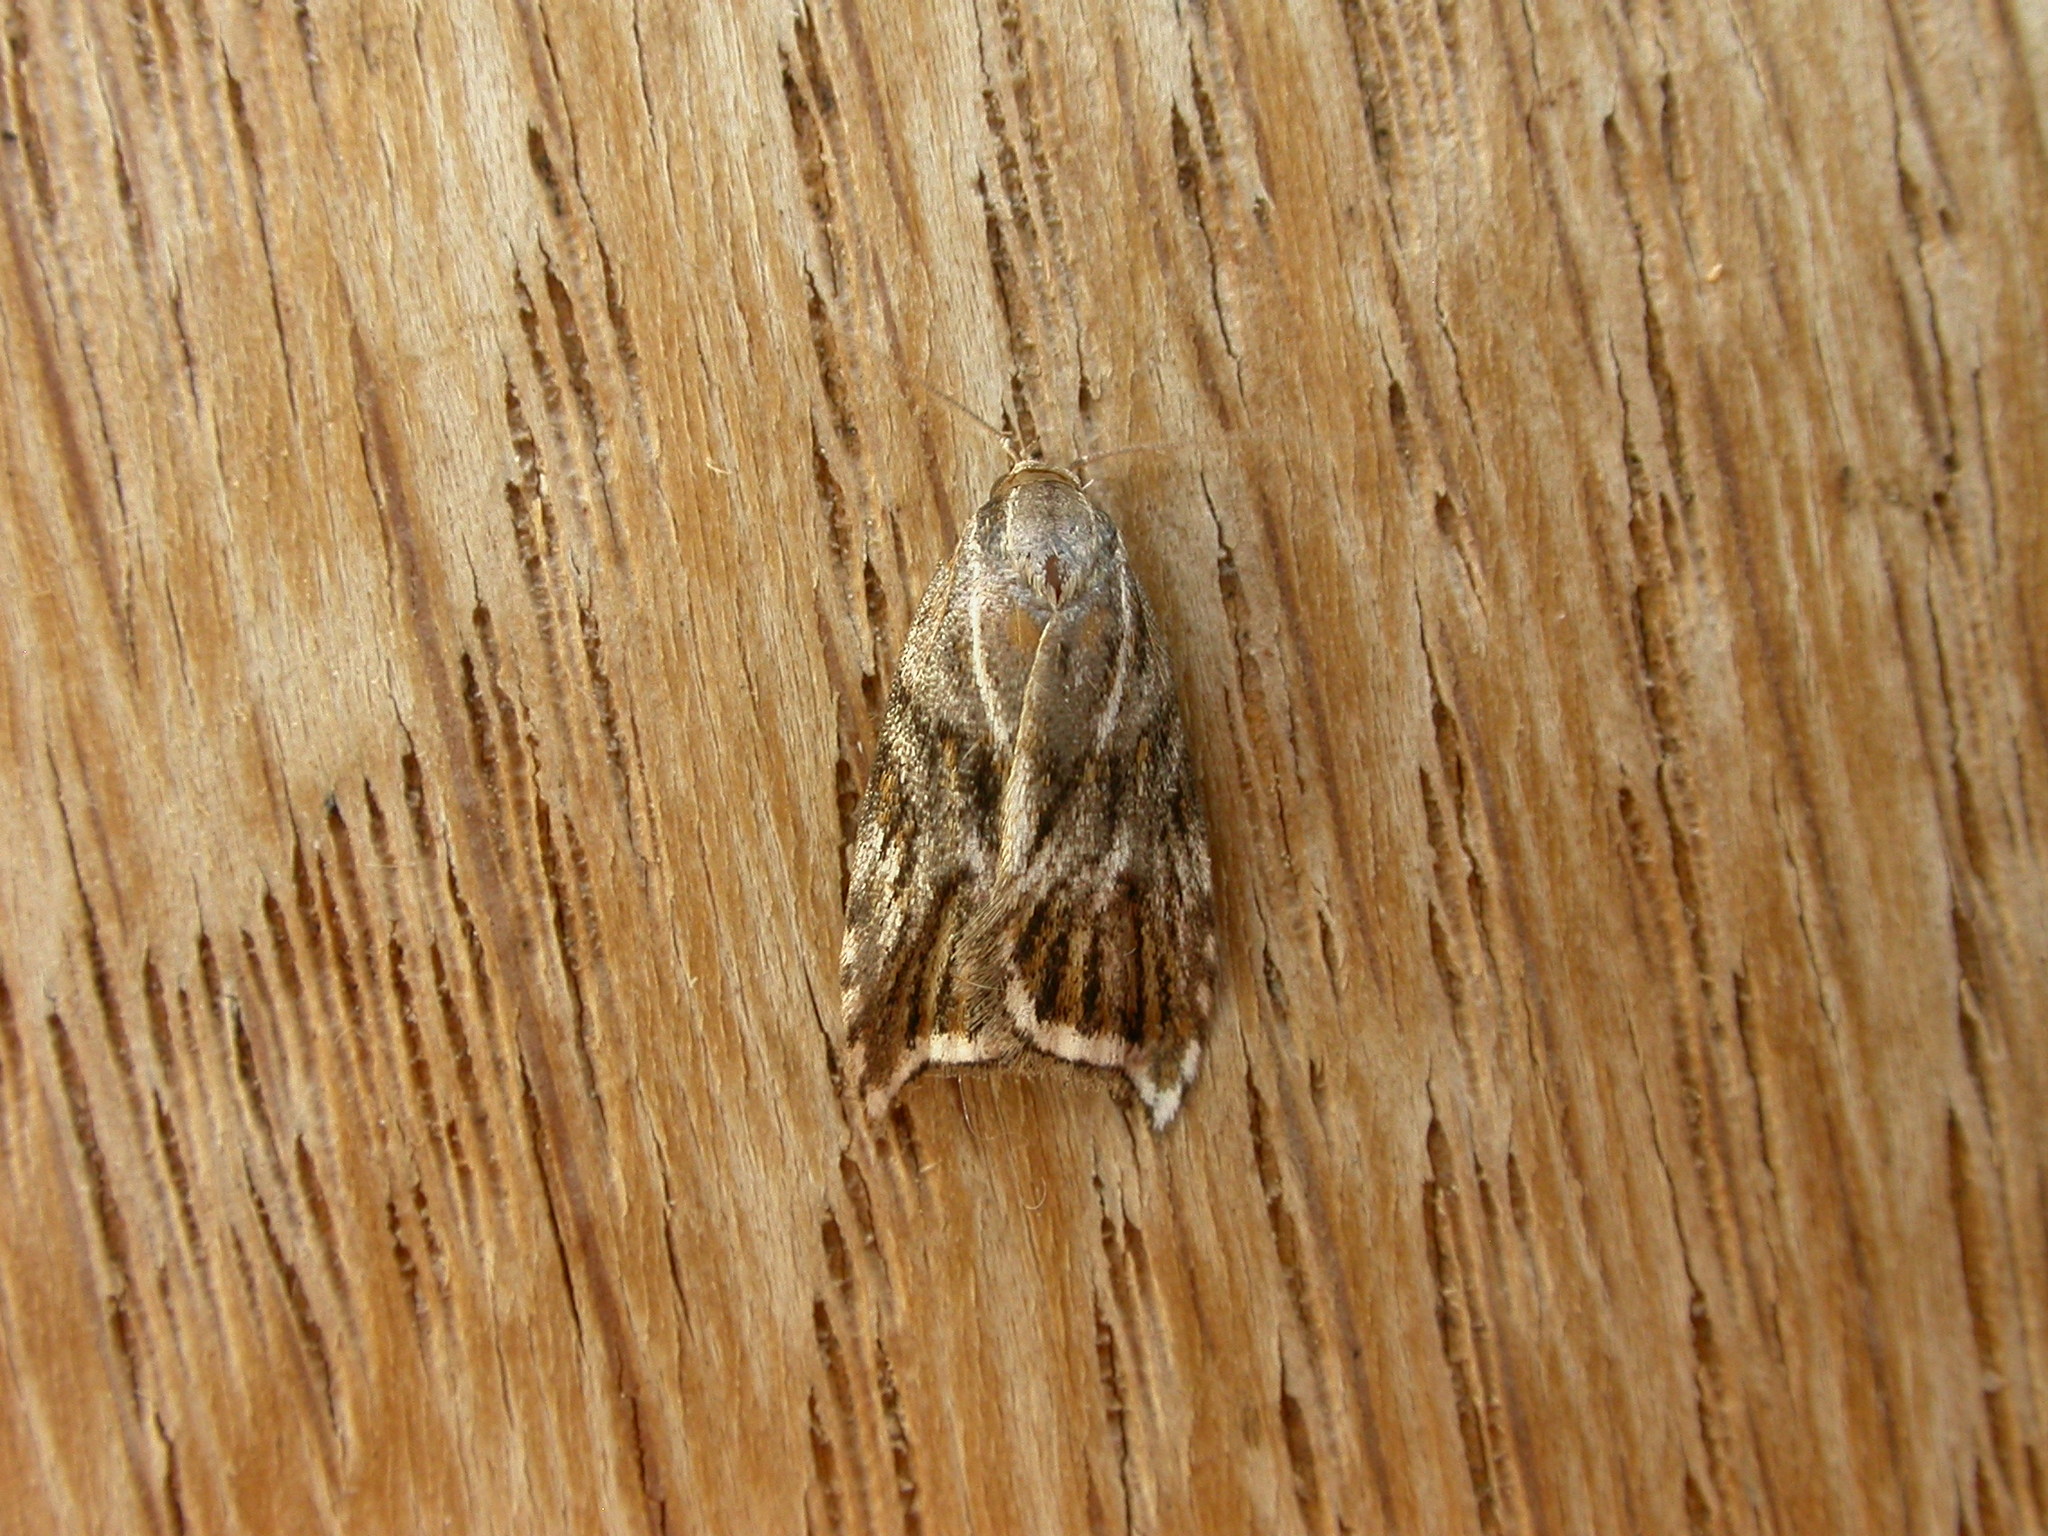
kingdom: Animalia
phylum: Arthropoda
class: Insecta
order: Lepidoptera
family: Oecophoridae
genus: Tortricopsis
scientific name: Tortricopsis aulacois
